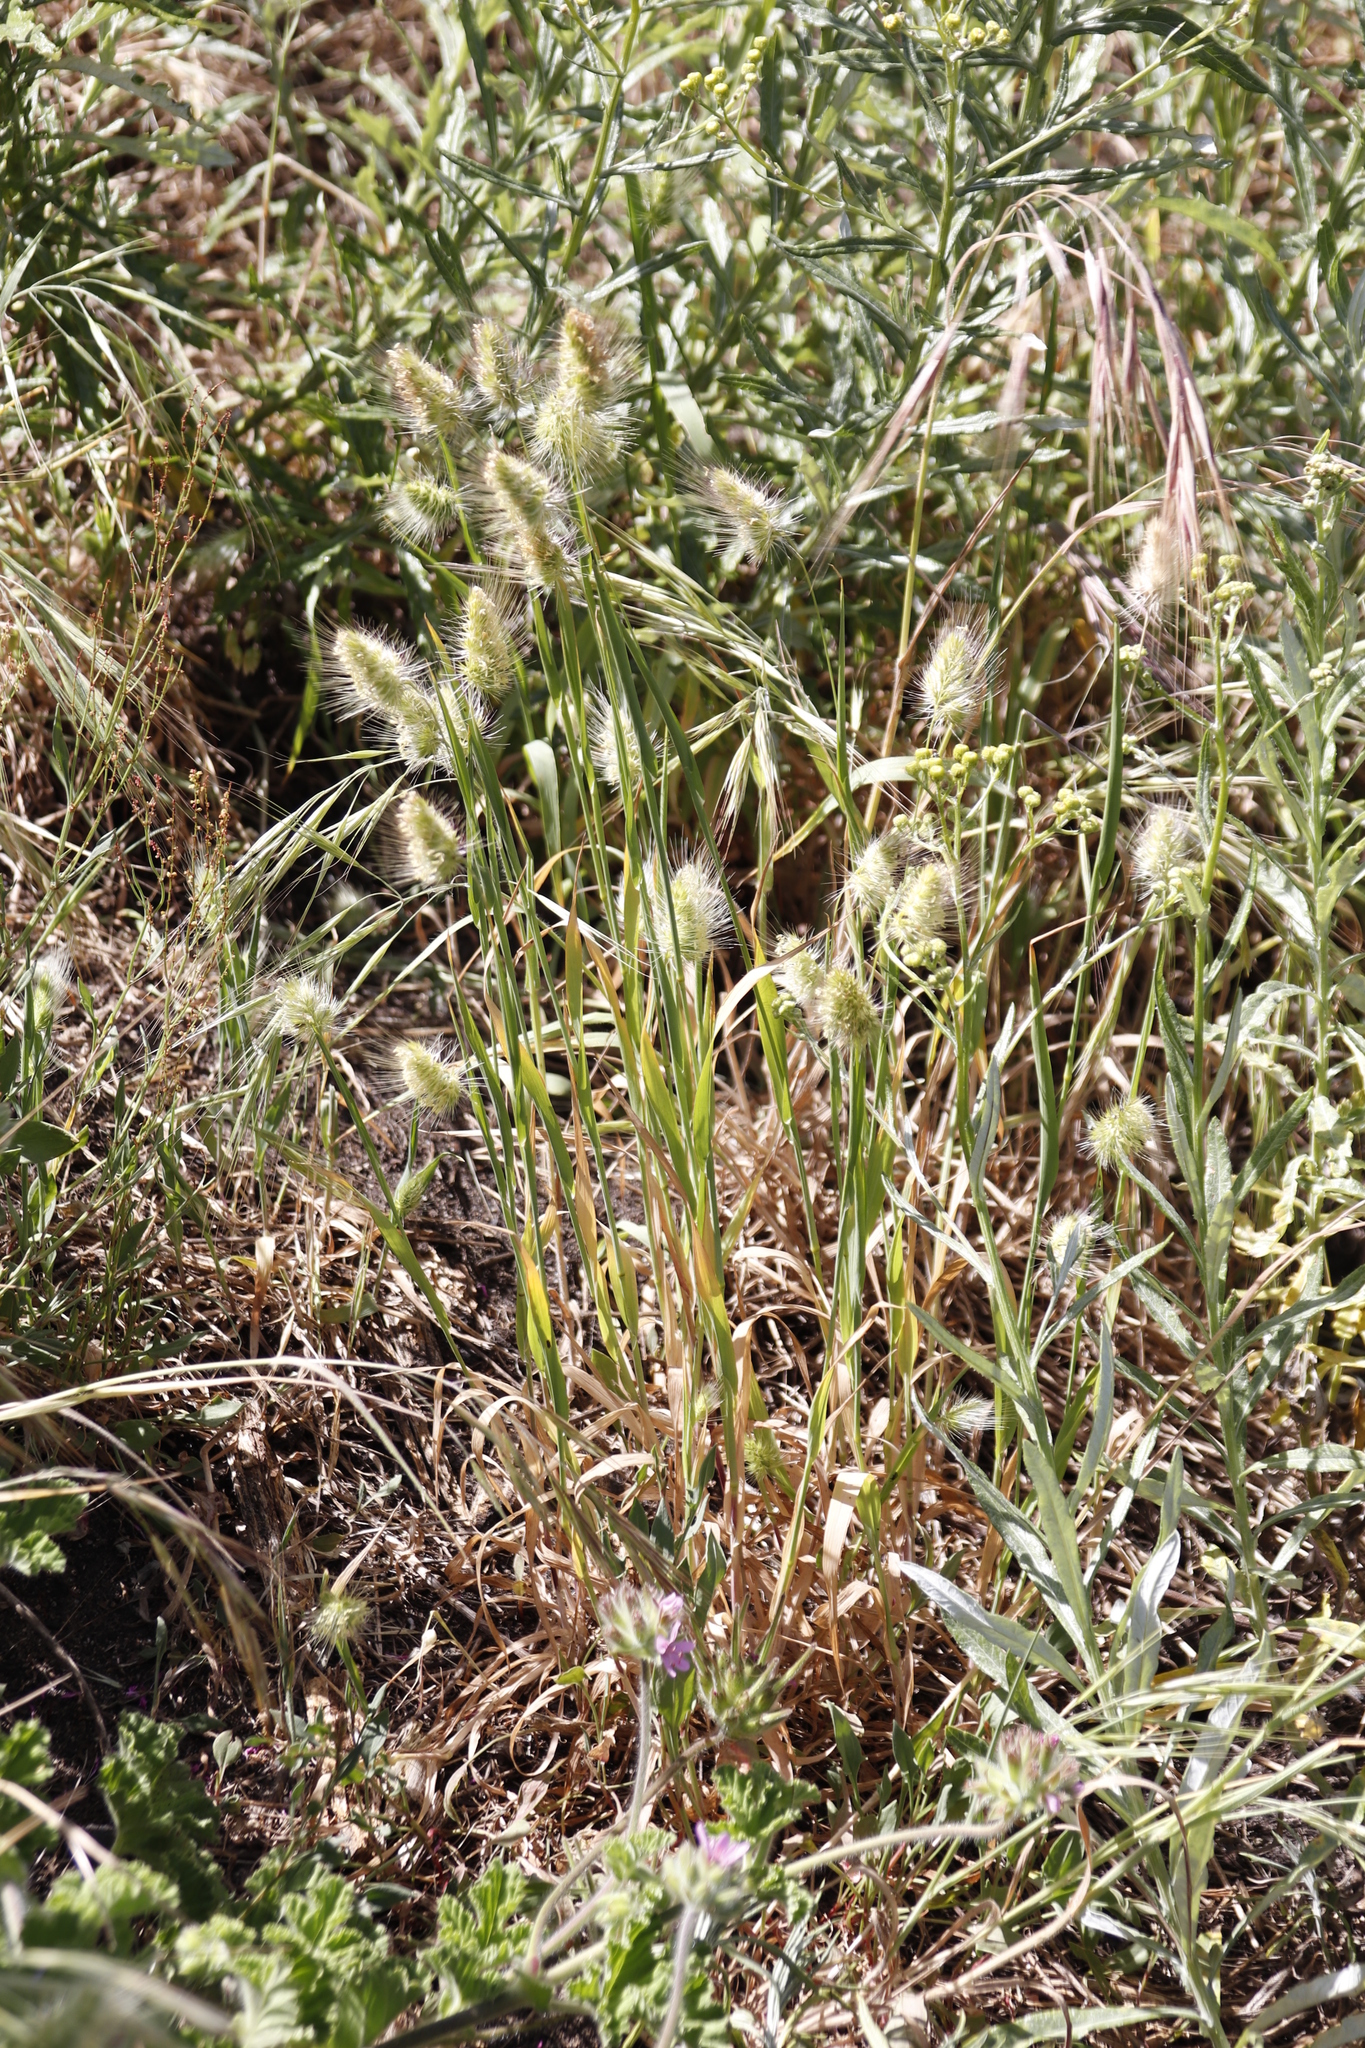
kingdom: Plantae
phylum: Tracheophyta
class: Liliopsida
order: Poales
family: Poaceae
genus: Lagurus
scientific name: Lagurus ovatus
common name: Hare's-tail
